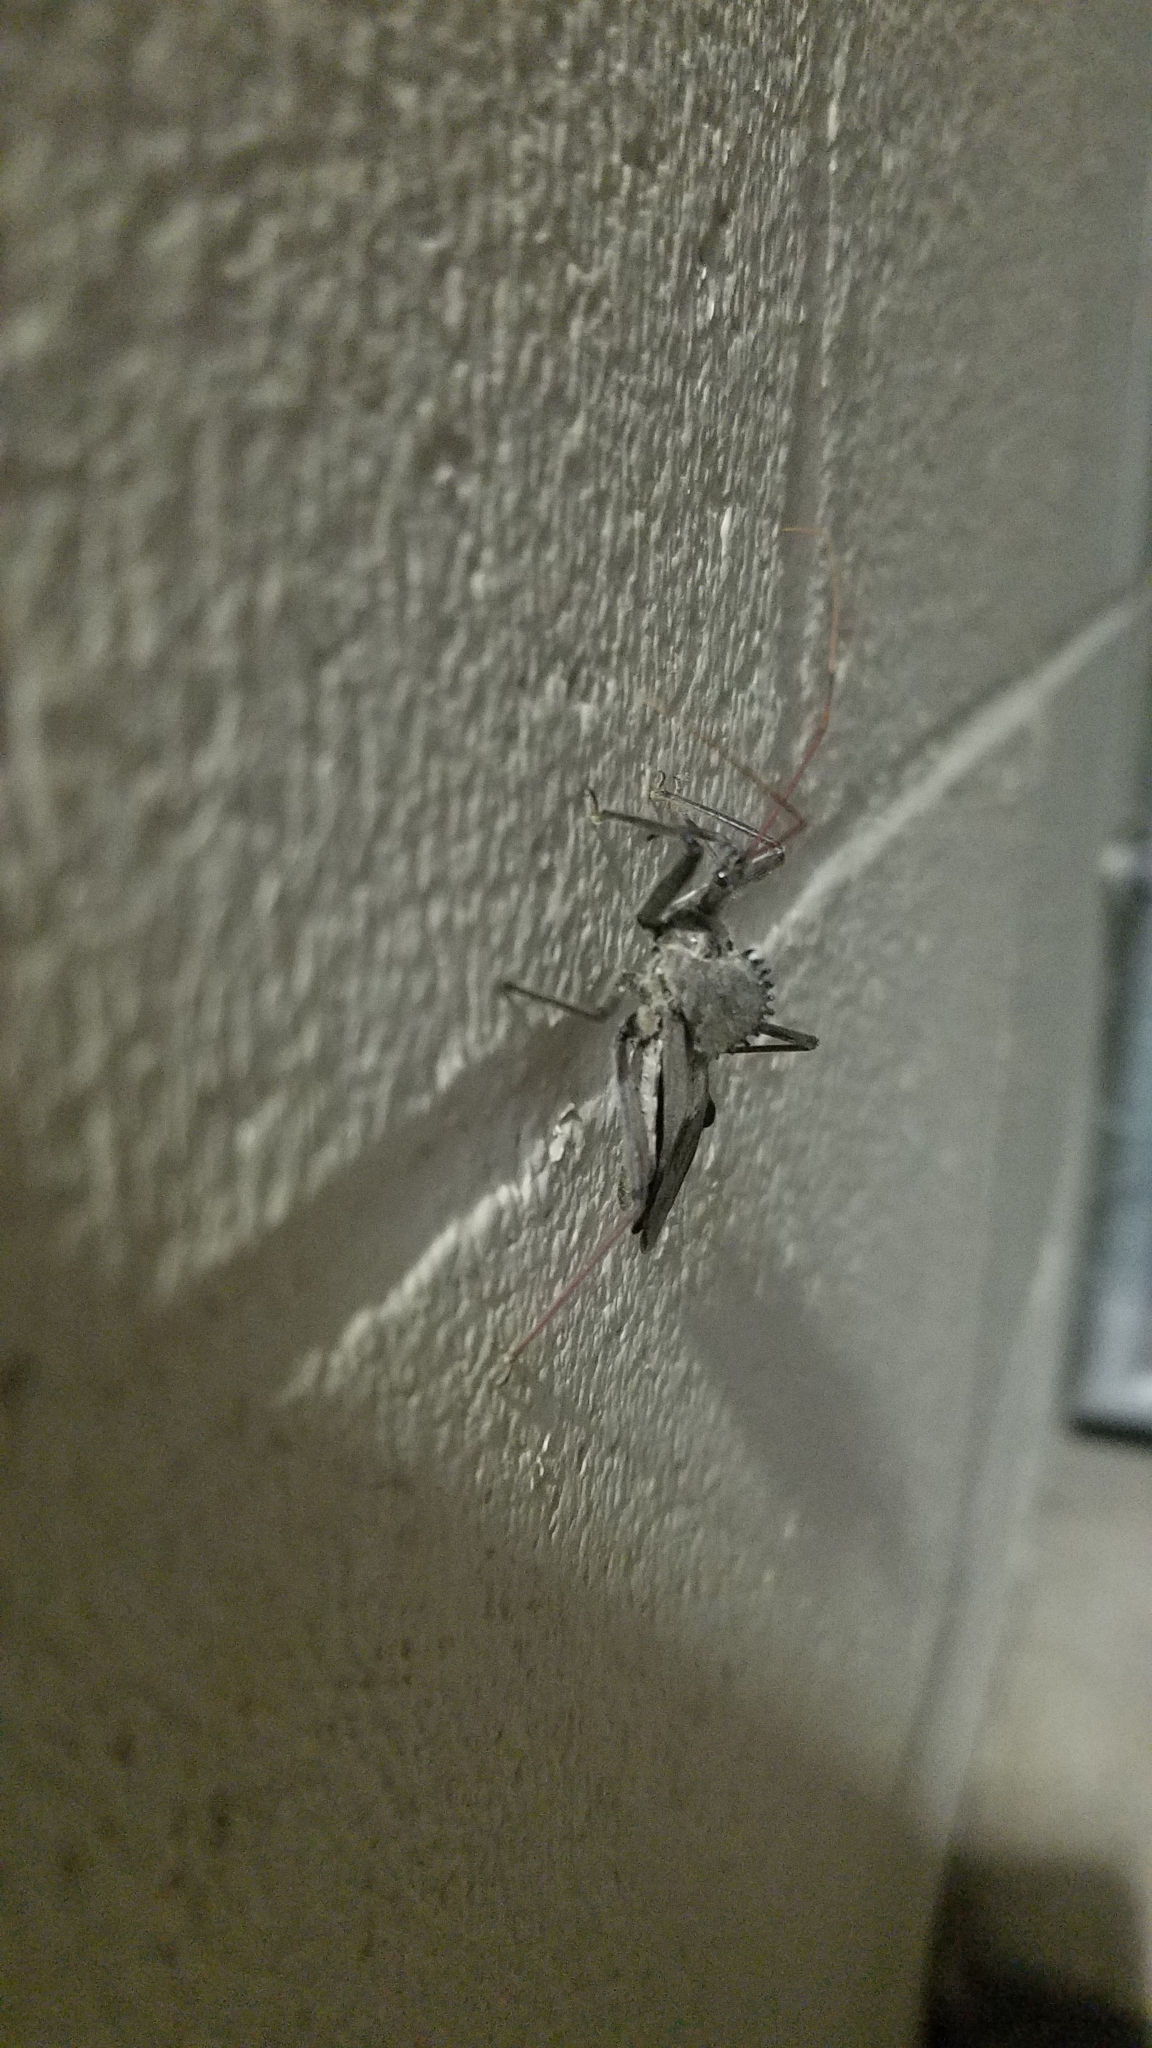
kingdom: Animalia
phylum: Arthropoda
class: Insecta
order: Hemiptera
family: Reduviidae
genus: Arilus
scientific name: Arilus cristatus
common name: North american wheel bug
